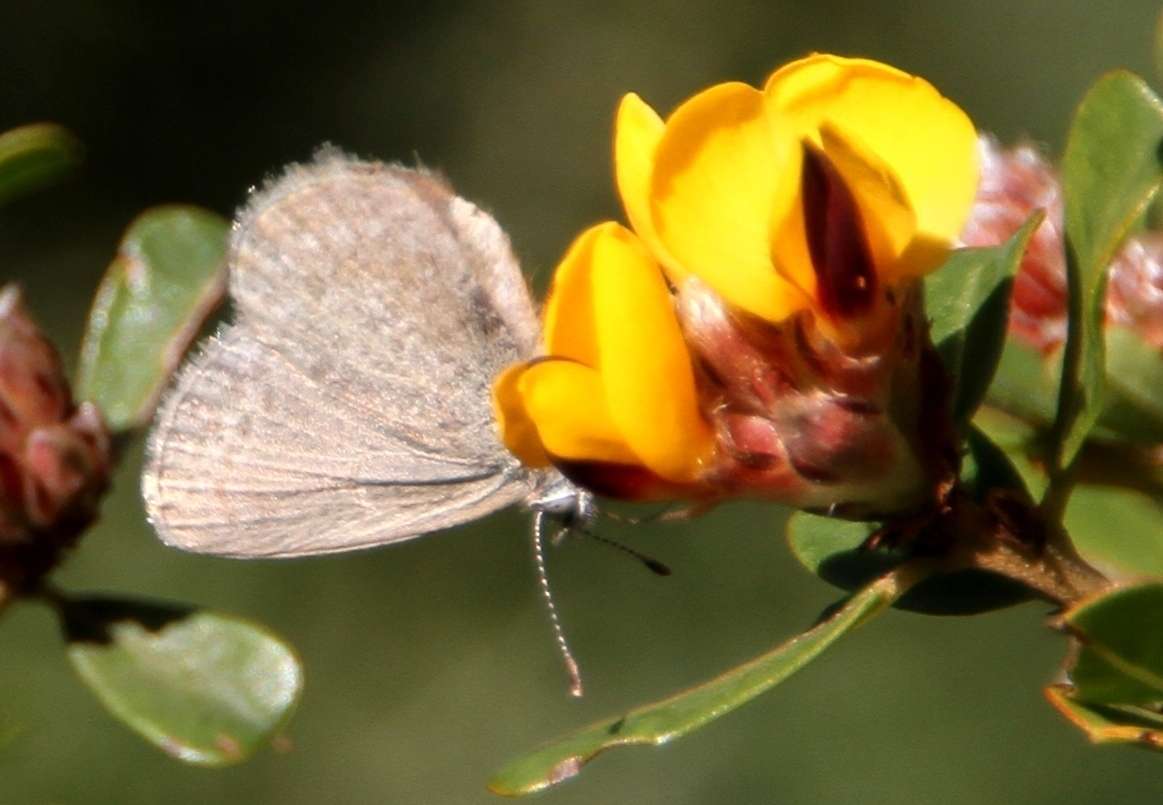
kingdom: Animalia
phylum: Arthropoda
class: Insecta
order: Lepidoptera
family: Lycaenidae
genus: Zizina
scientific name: Zizina labradus
